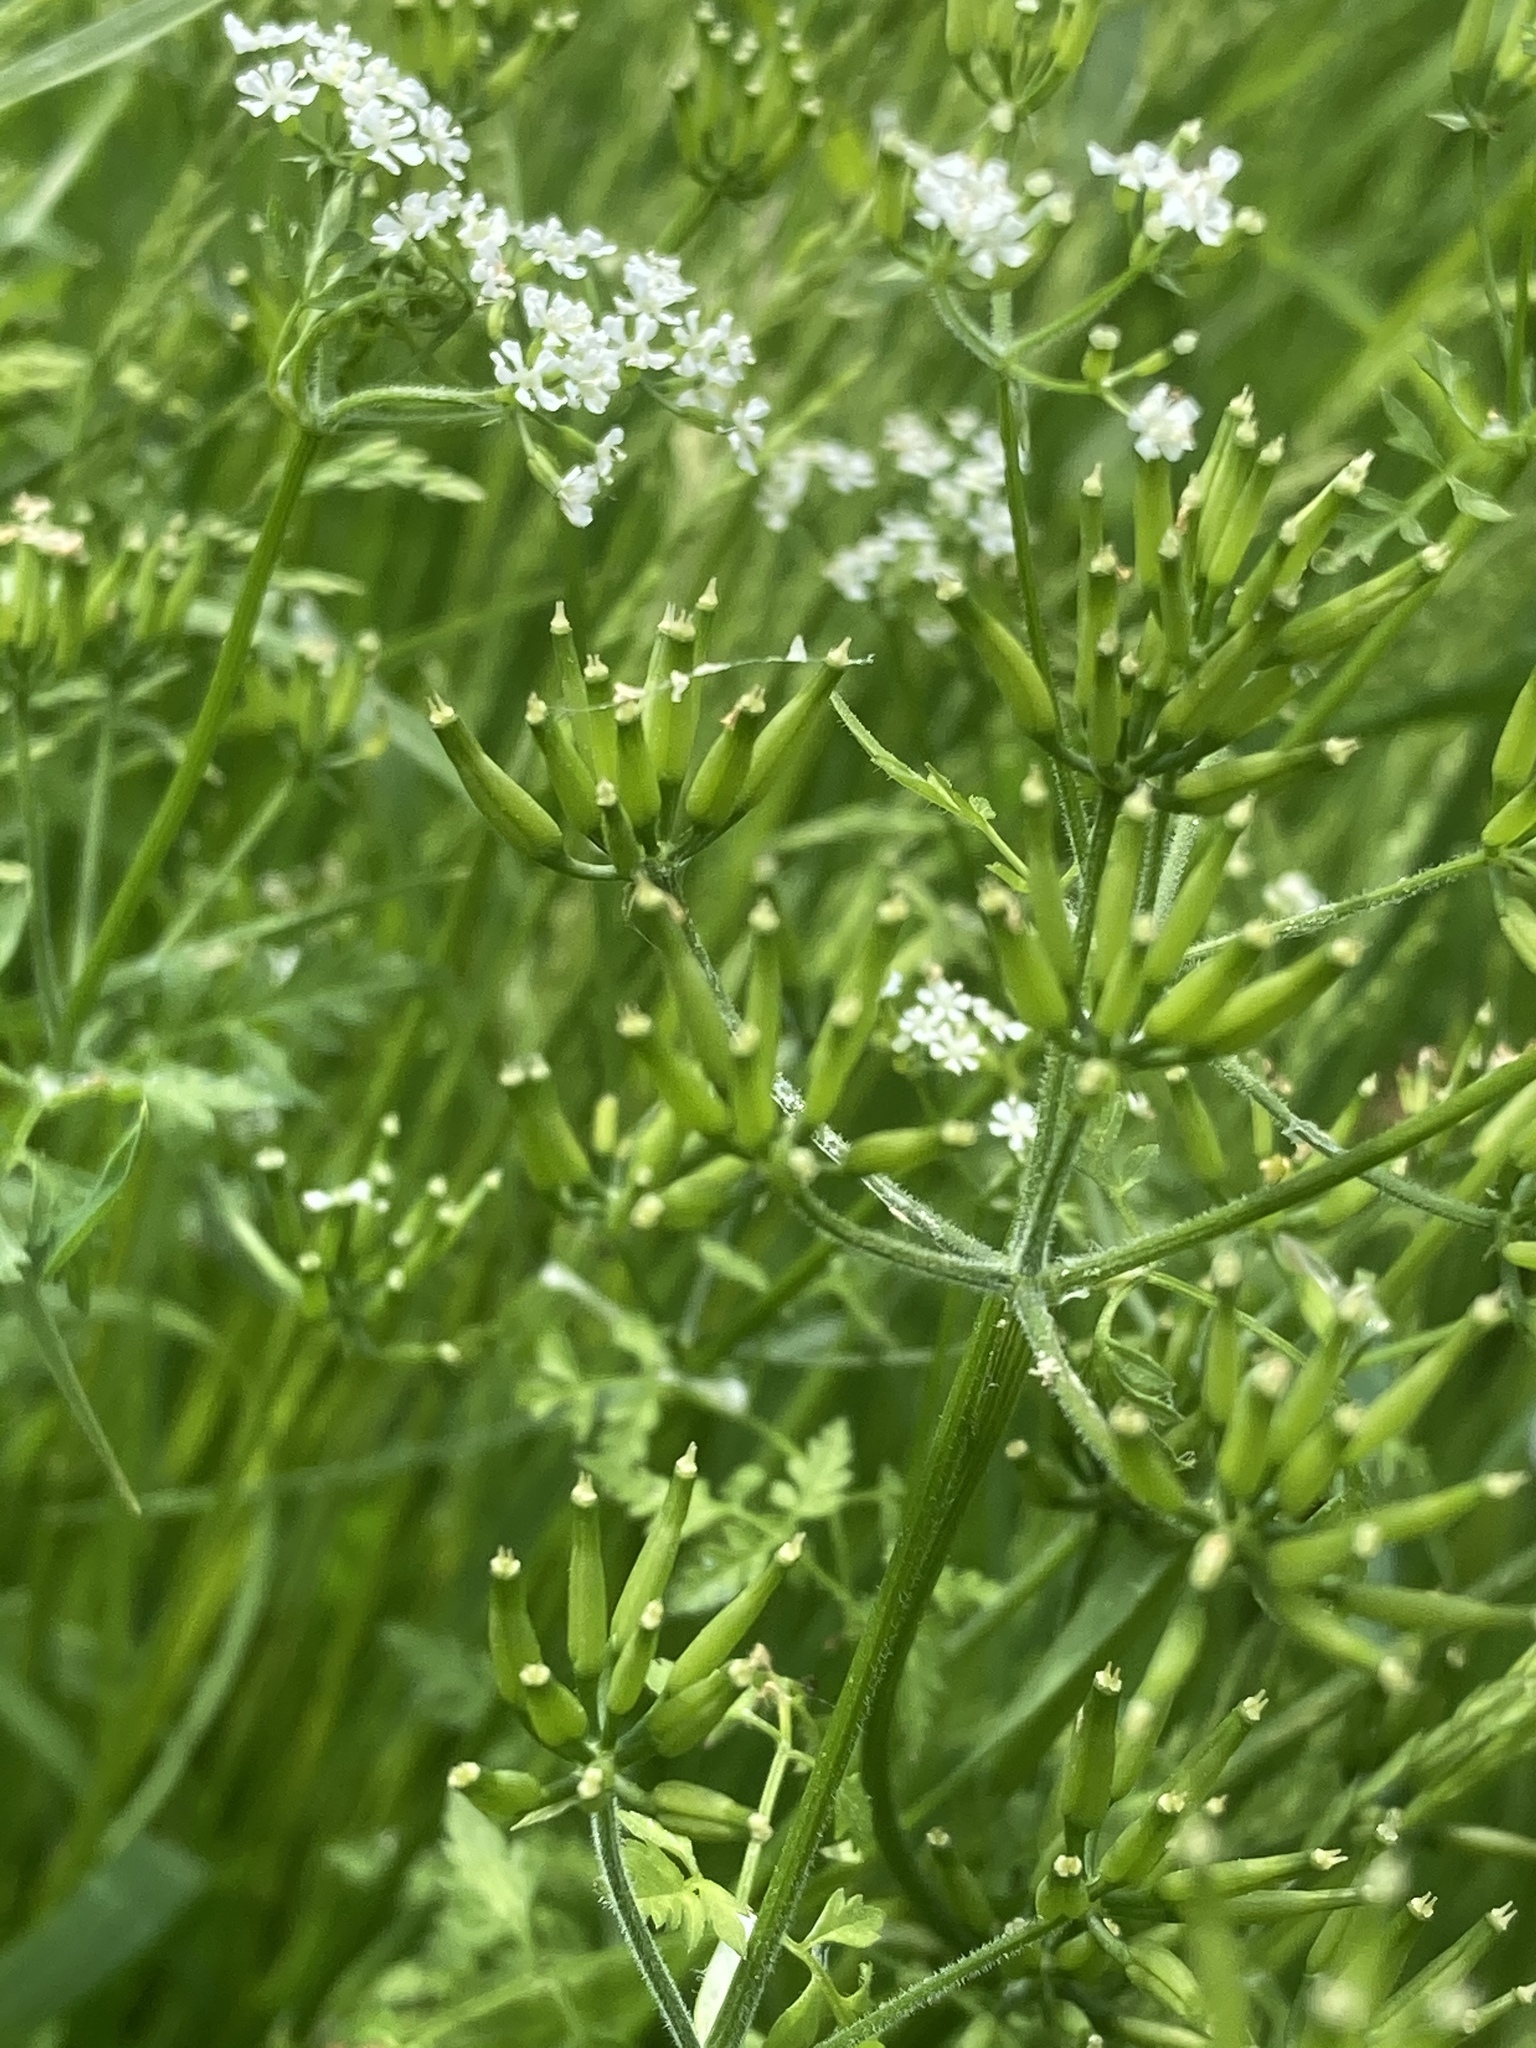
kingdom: Plantae
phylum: Tracheophyta
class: Magnoliopsida
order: Apiales
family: Apiaceae
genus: Anthriscus
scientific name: Anthriscus cerefolium
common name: Garden chervil
